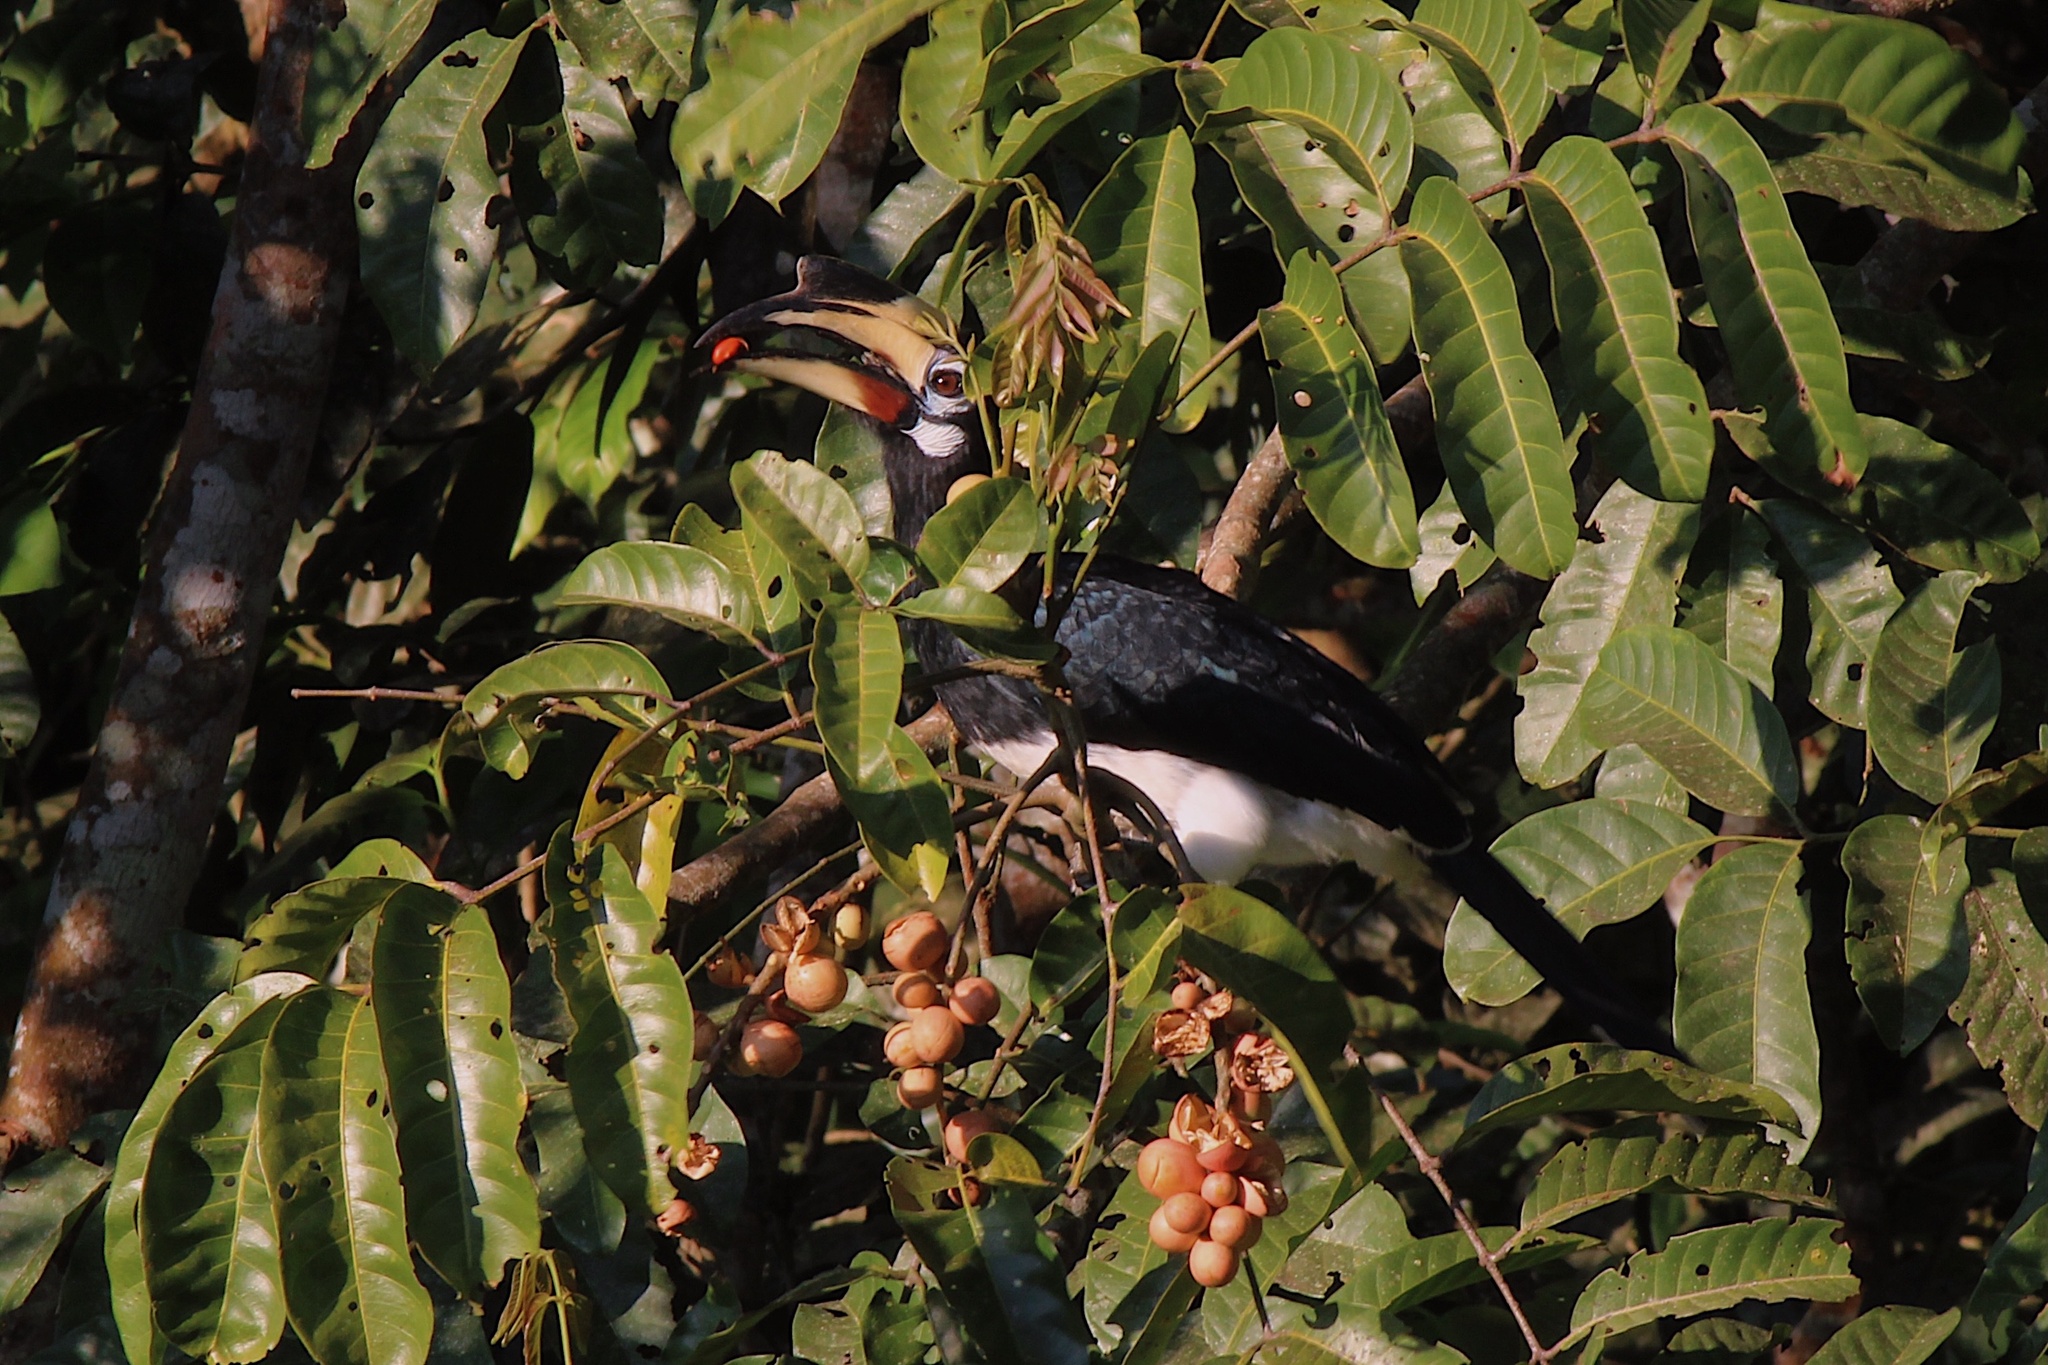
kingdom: Animalia
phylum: Chordata
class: Aves
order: Bucerotiformes
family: Bucerotidae
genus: Anthracoceros
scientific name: Anthracoceros albirostris
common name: Oriental pied-hornbill
